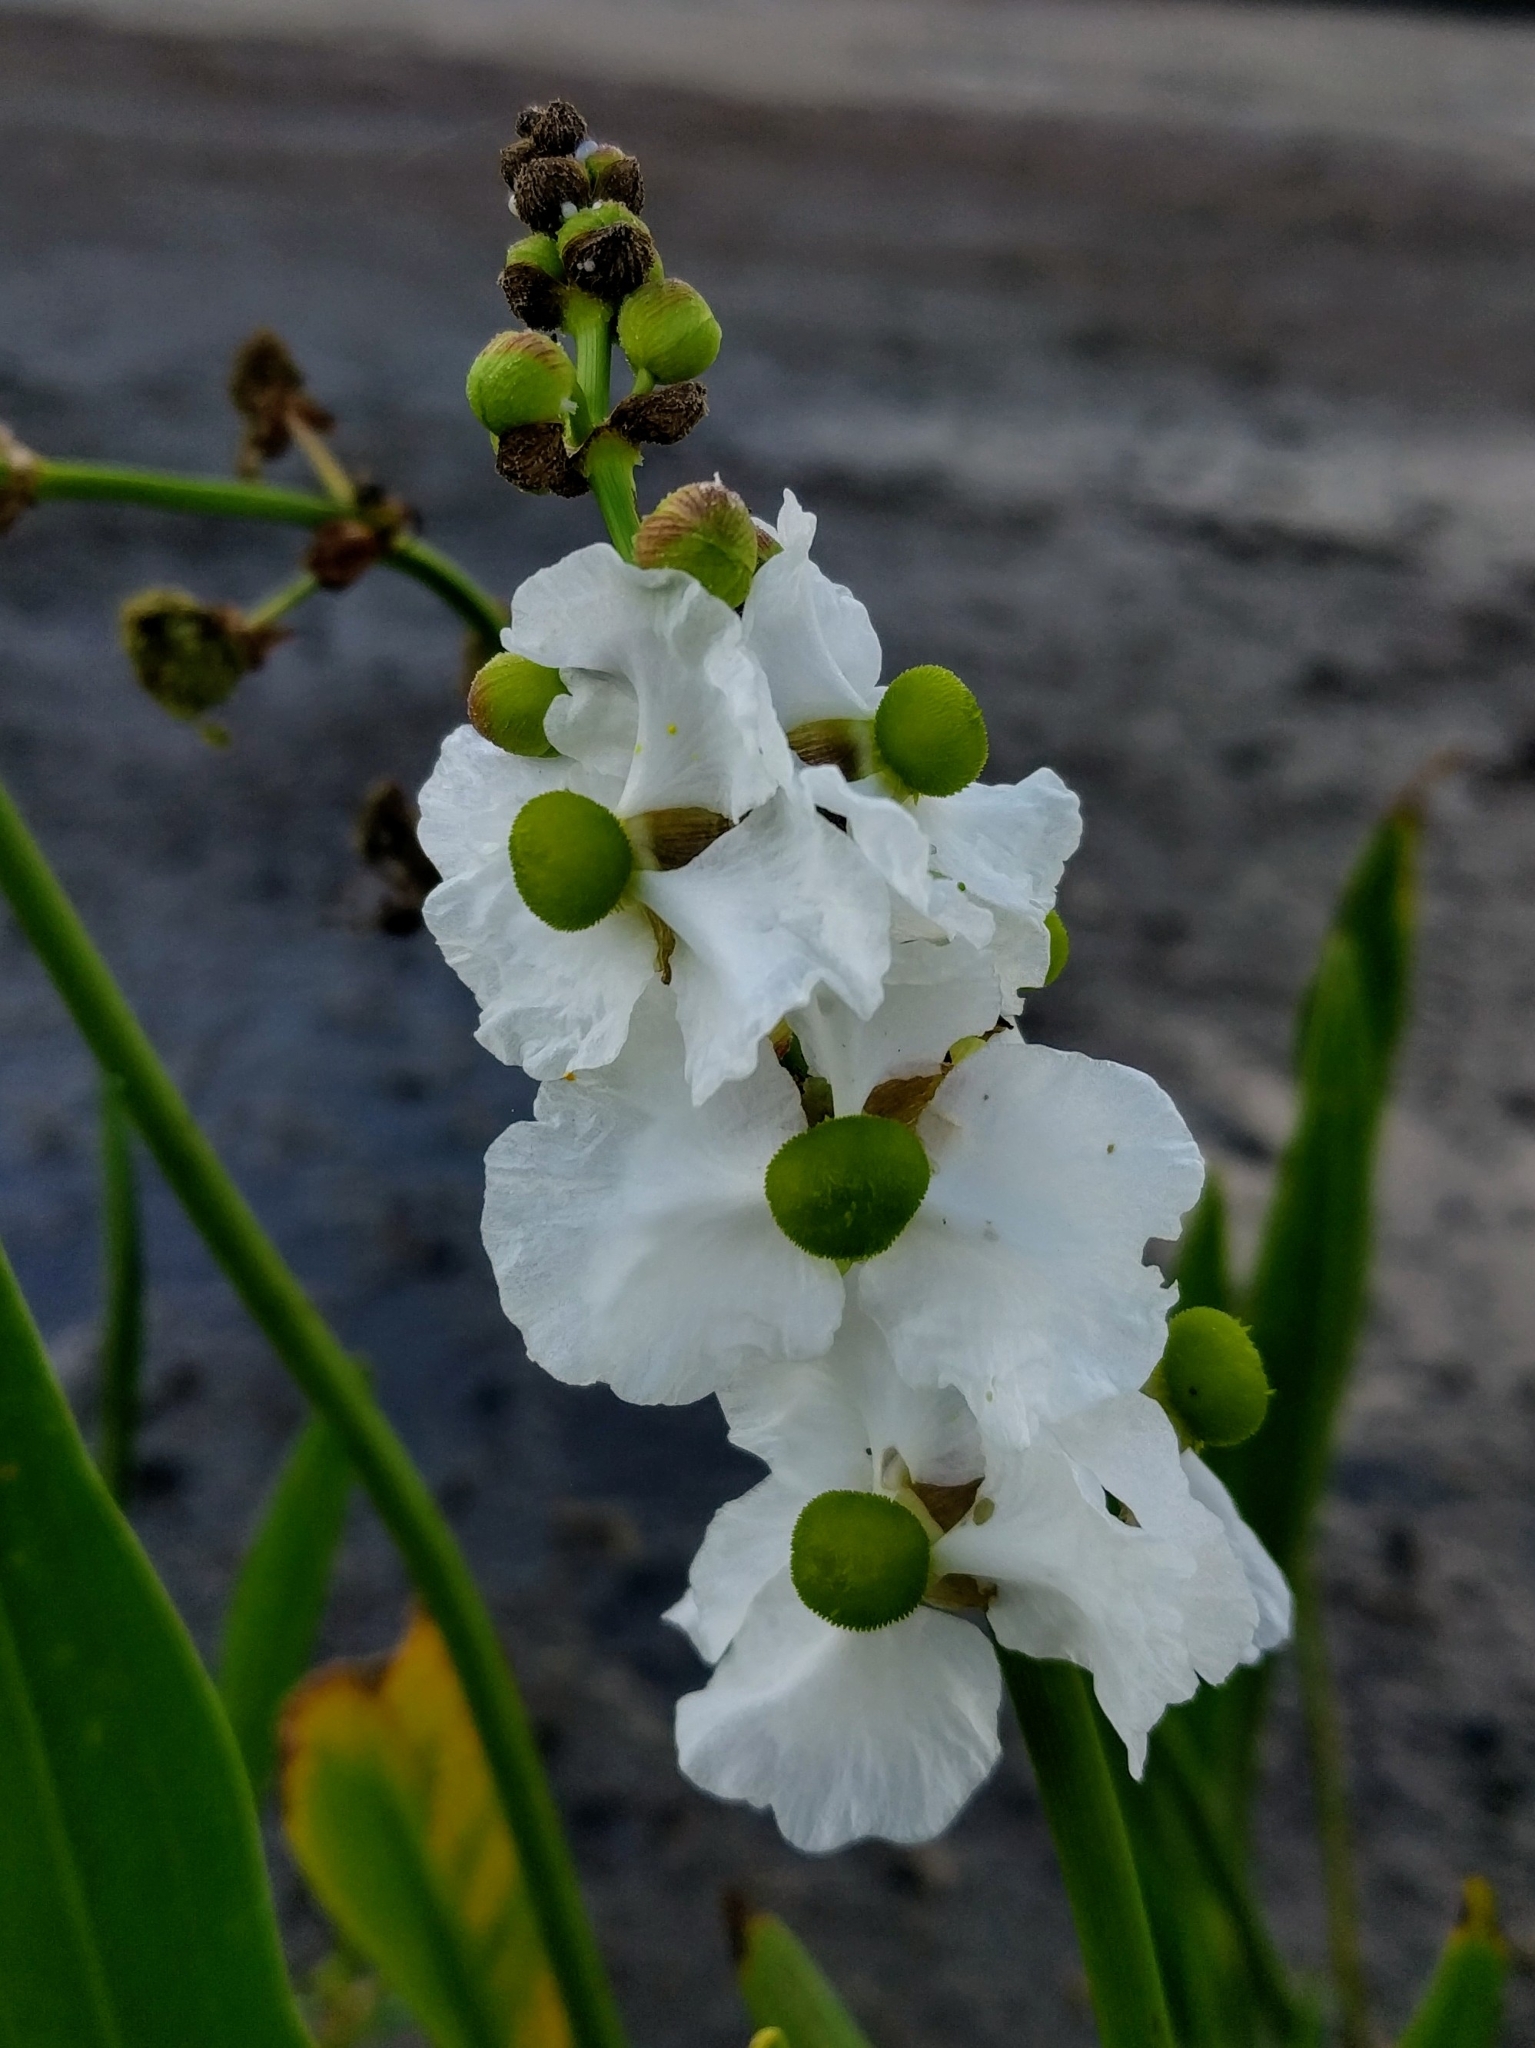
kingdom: Plantae
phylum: Tracheophyta
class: Liliopsida
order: Alismatales
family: Alismataceae
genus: Sagittaria
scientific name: Sagittaria lancifolia
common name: Lance-leaf arrowhead
